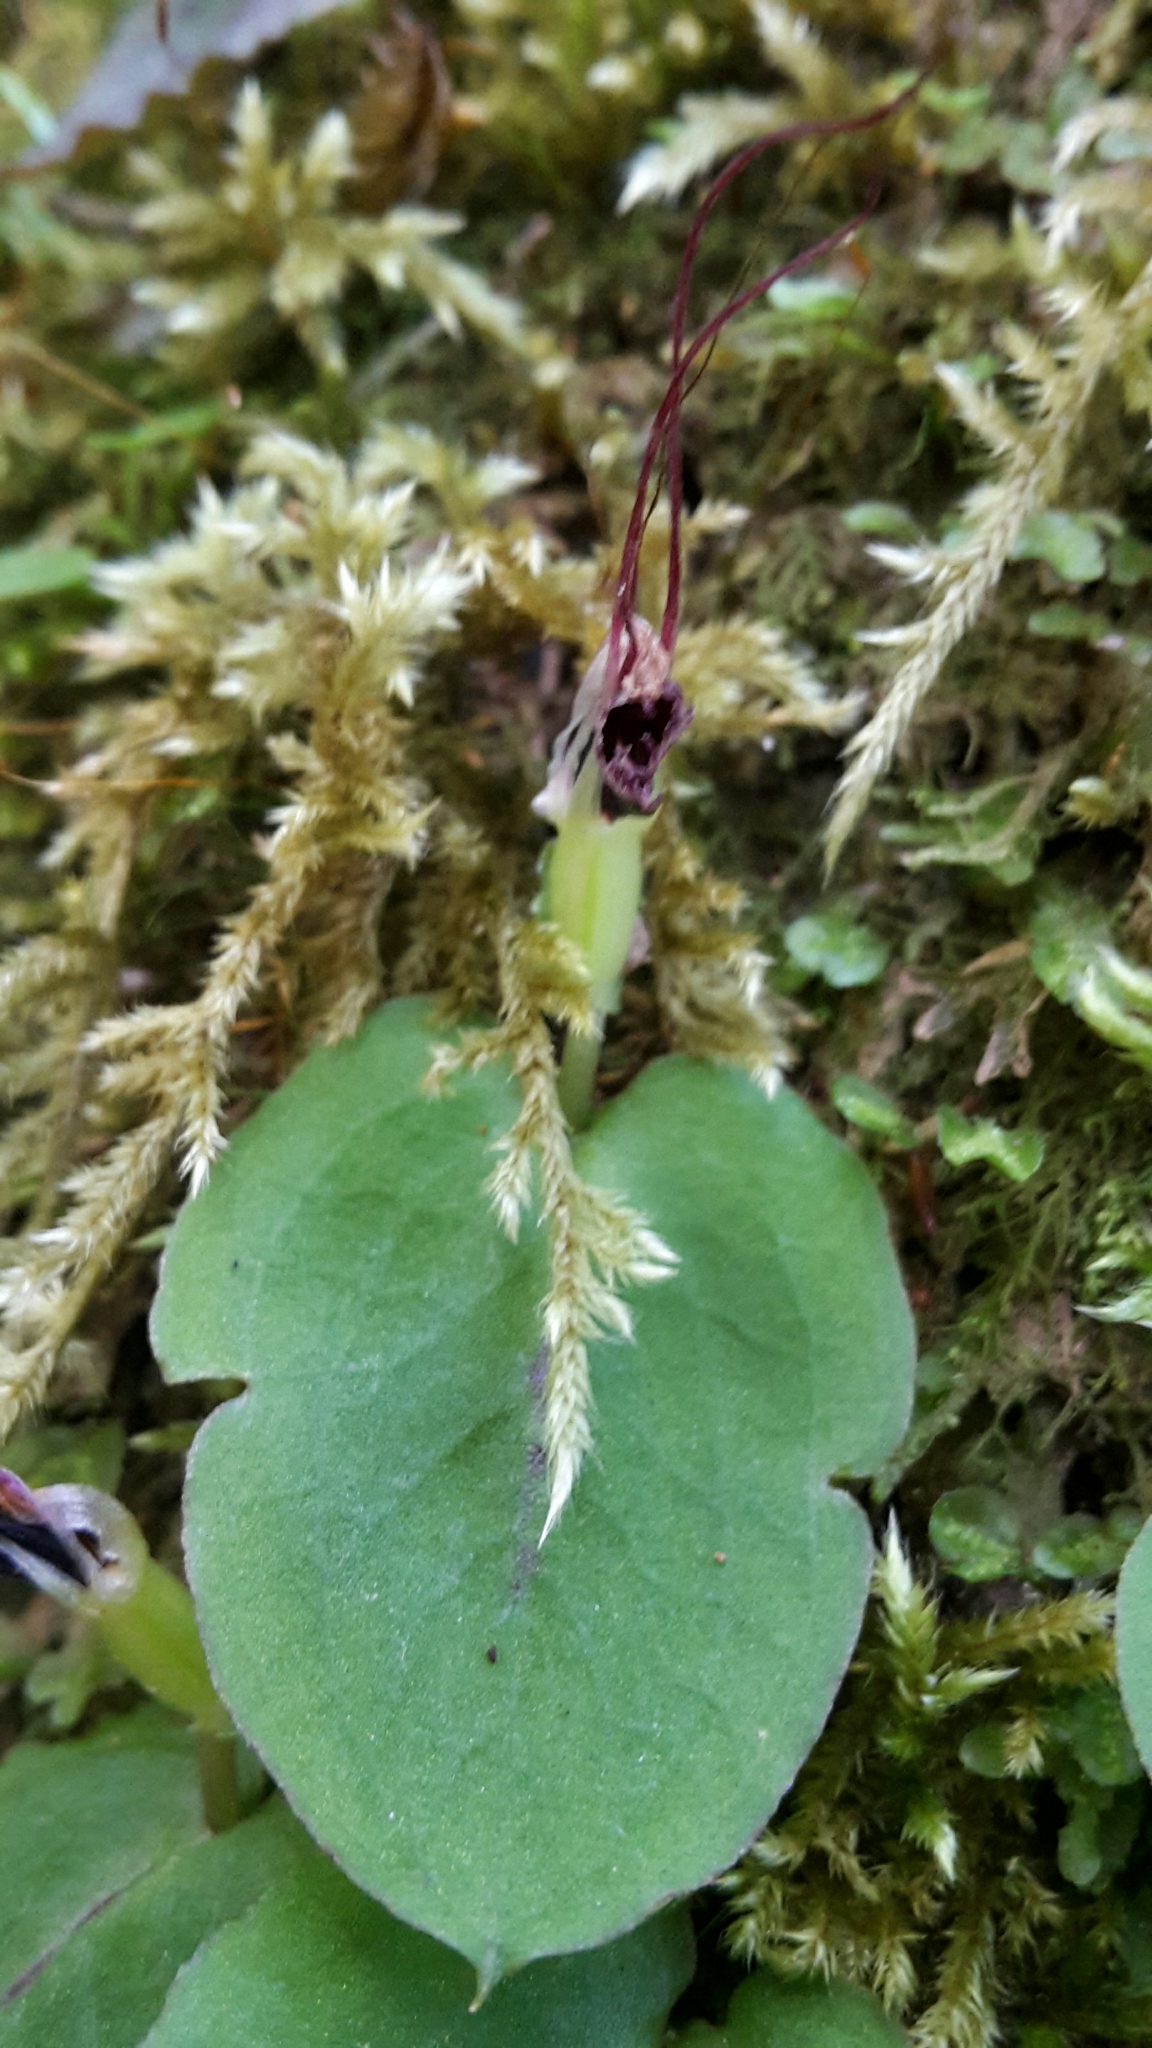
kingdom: Plantae
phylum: Tracheophyta
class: Liliopsida
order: Asparagales
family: Orchidaceae
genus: Corybas
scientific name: Corybas oblongus
